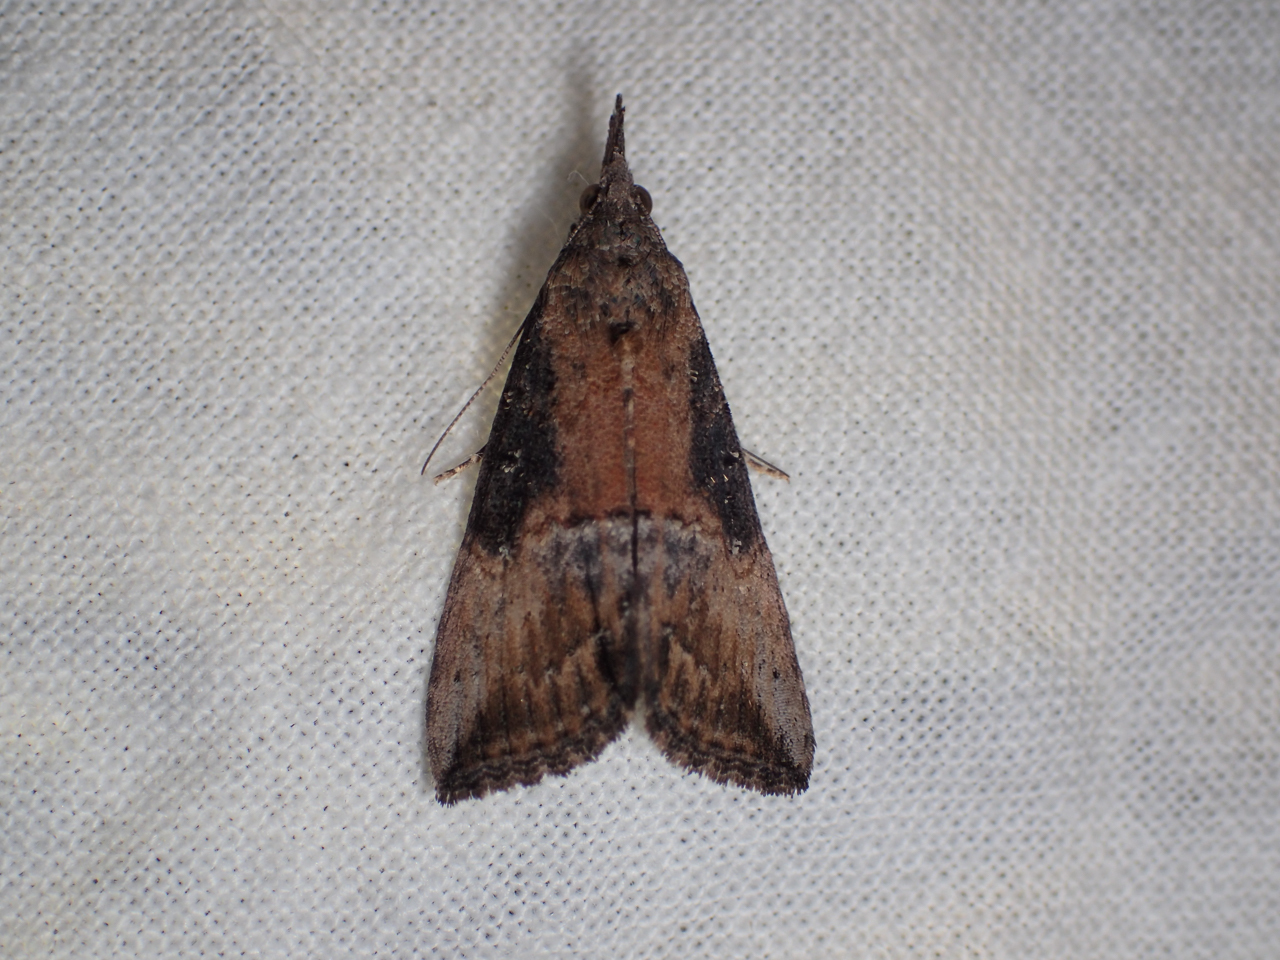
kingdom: Animalia
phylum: Arthropoda
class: Insecta
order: Lepidoptera
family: Erebidae
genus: Hypena
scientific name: Hypena scabra
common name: Green cloverworm
